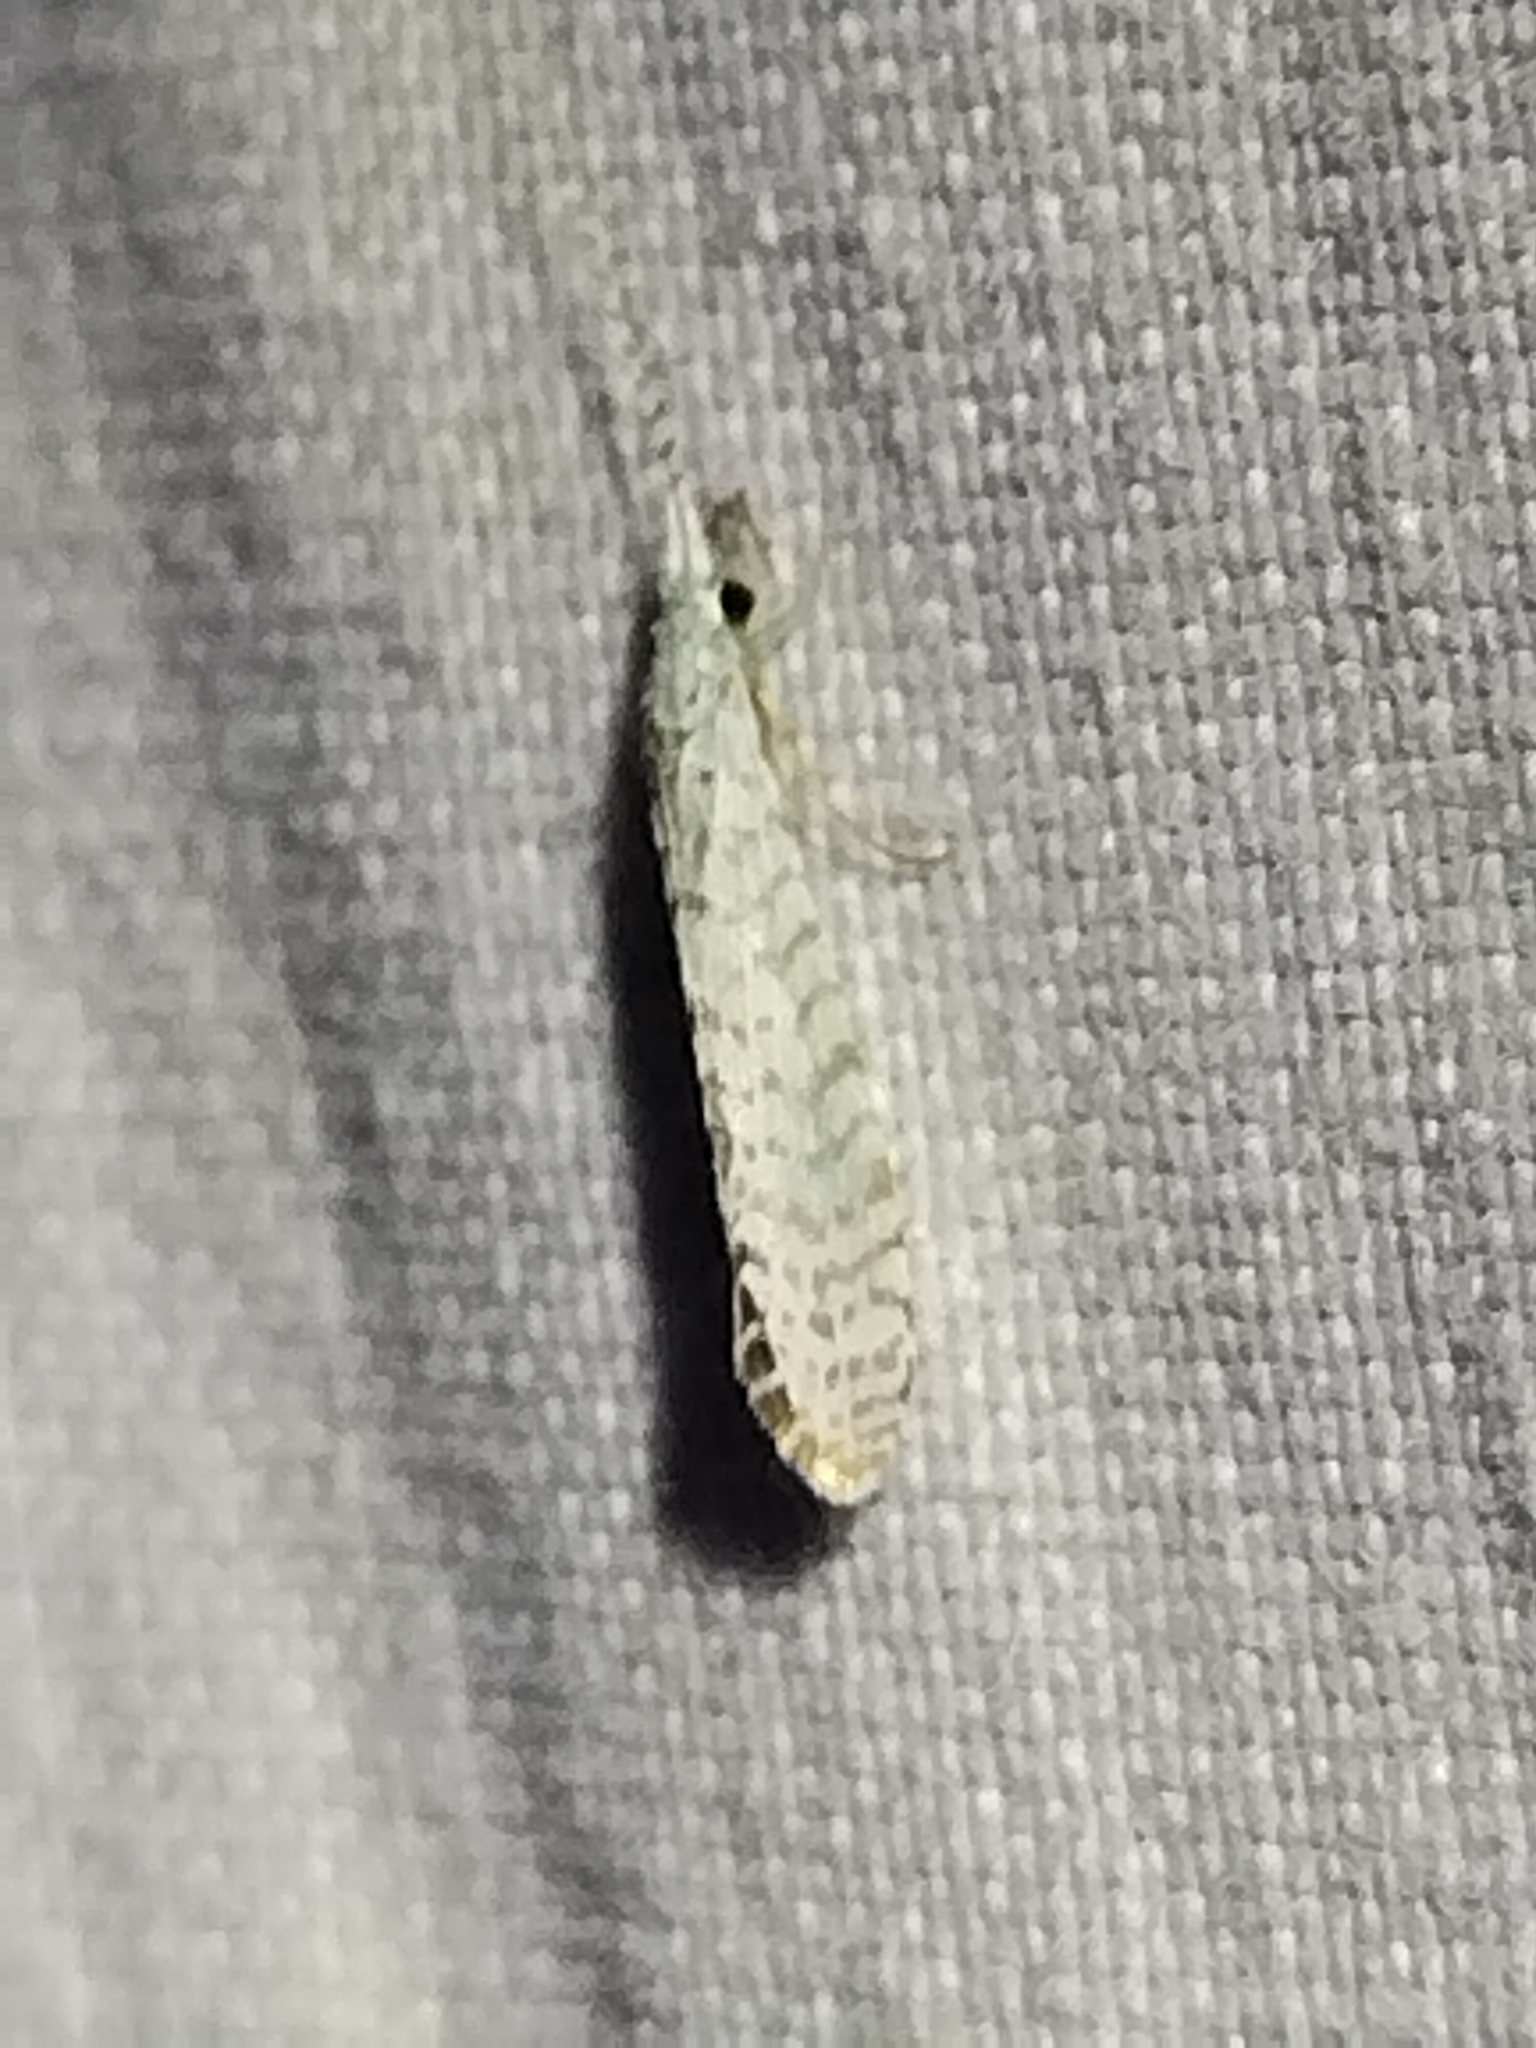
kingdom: Animalia
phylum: Arthropoda
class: Insecta
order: Trichoptera
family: Leptoceridae
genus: Nectopsyche
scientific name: Nectopsyche candida
